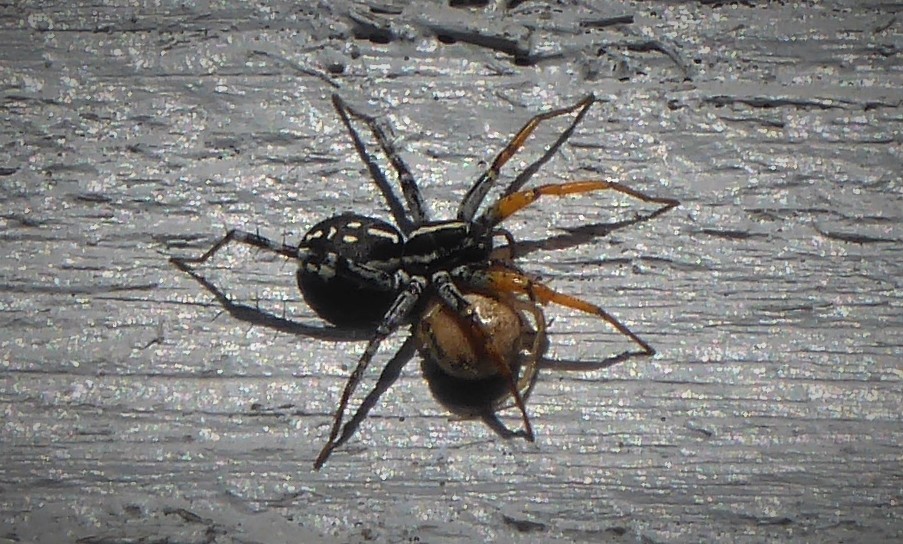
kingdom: Animalia
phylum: Arthropoda
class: Arachnida
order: Araneae
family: Corinnidae
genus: Nyssus
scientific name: Nyssus coloripes
